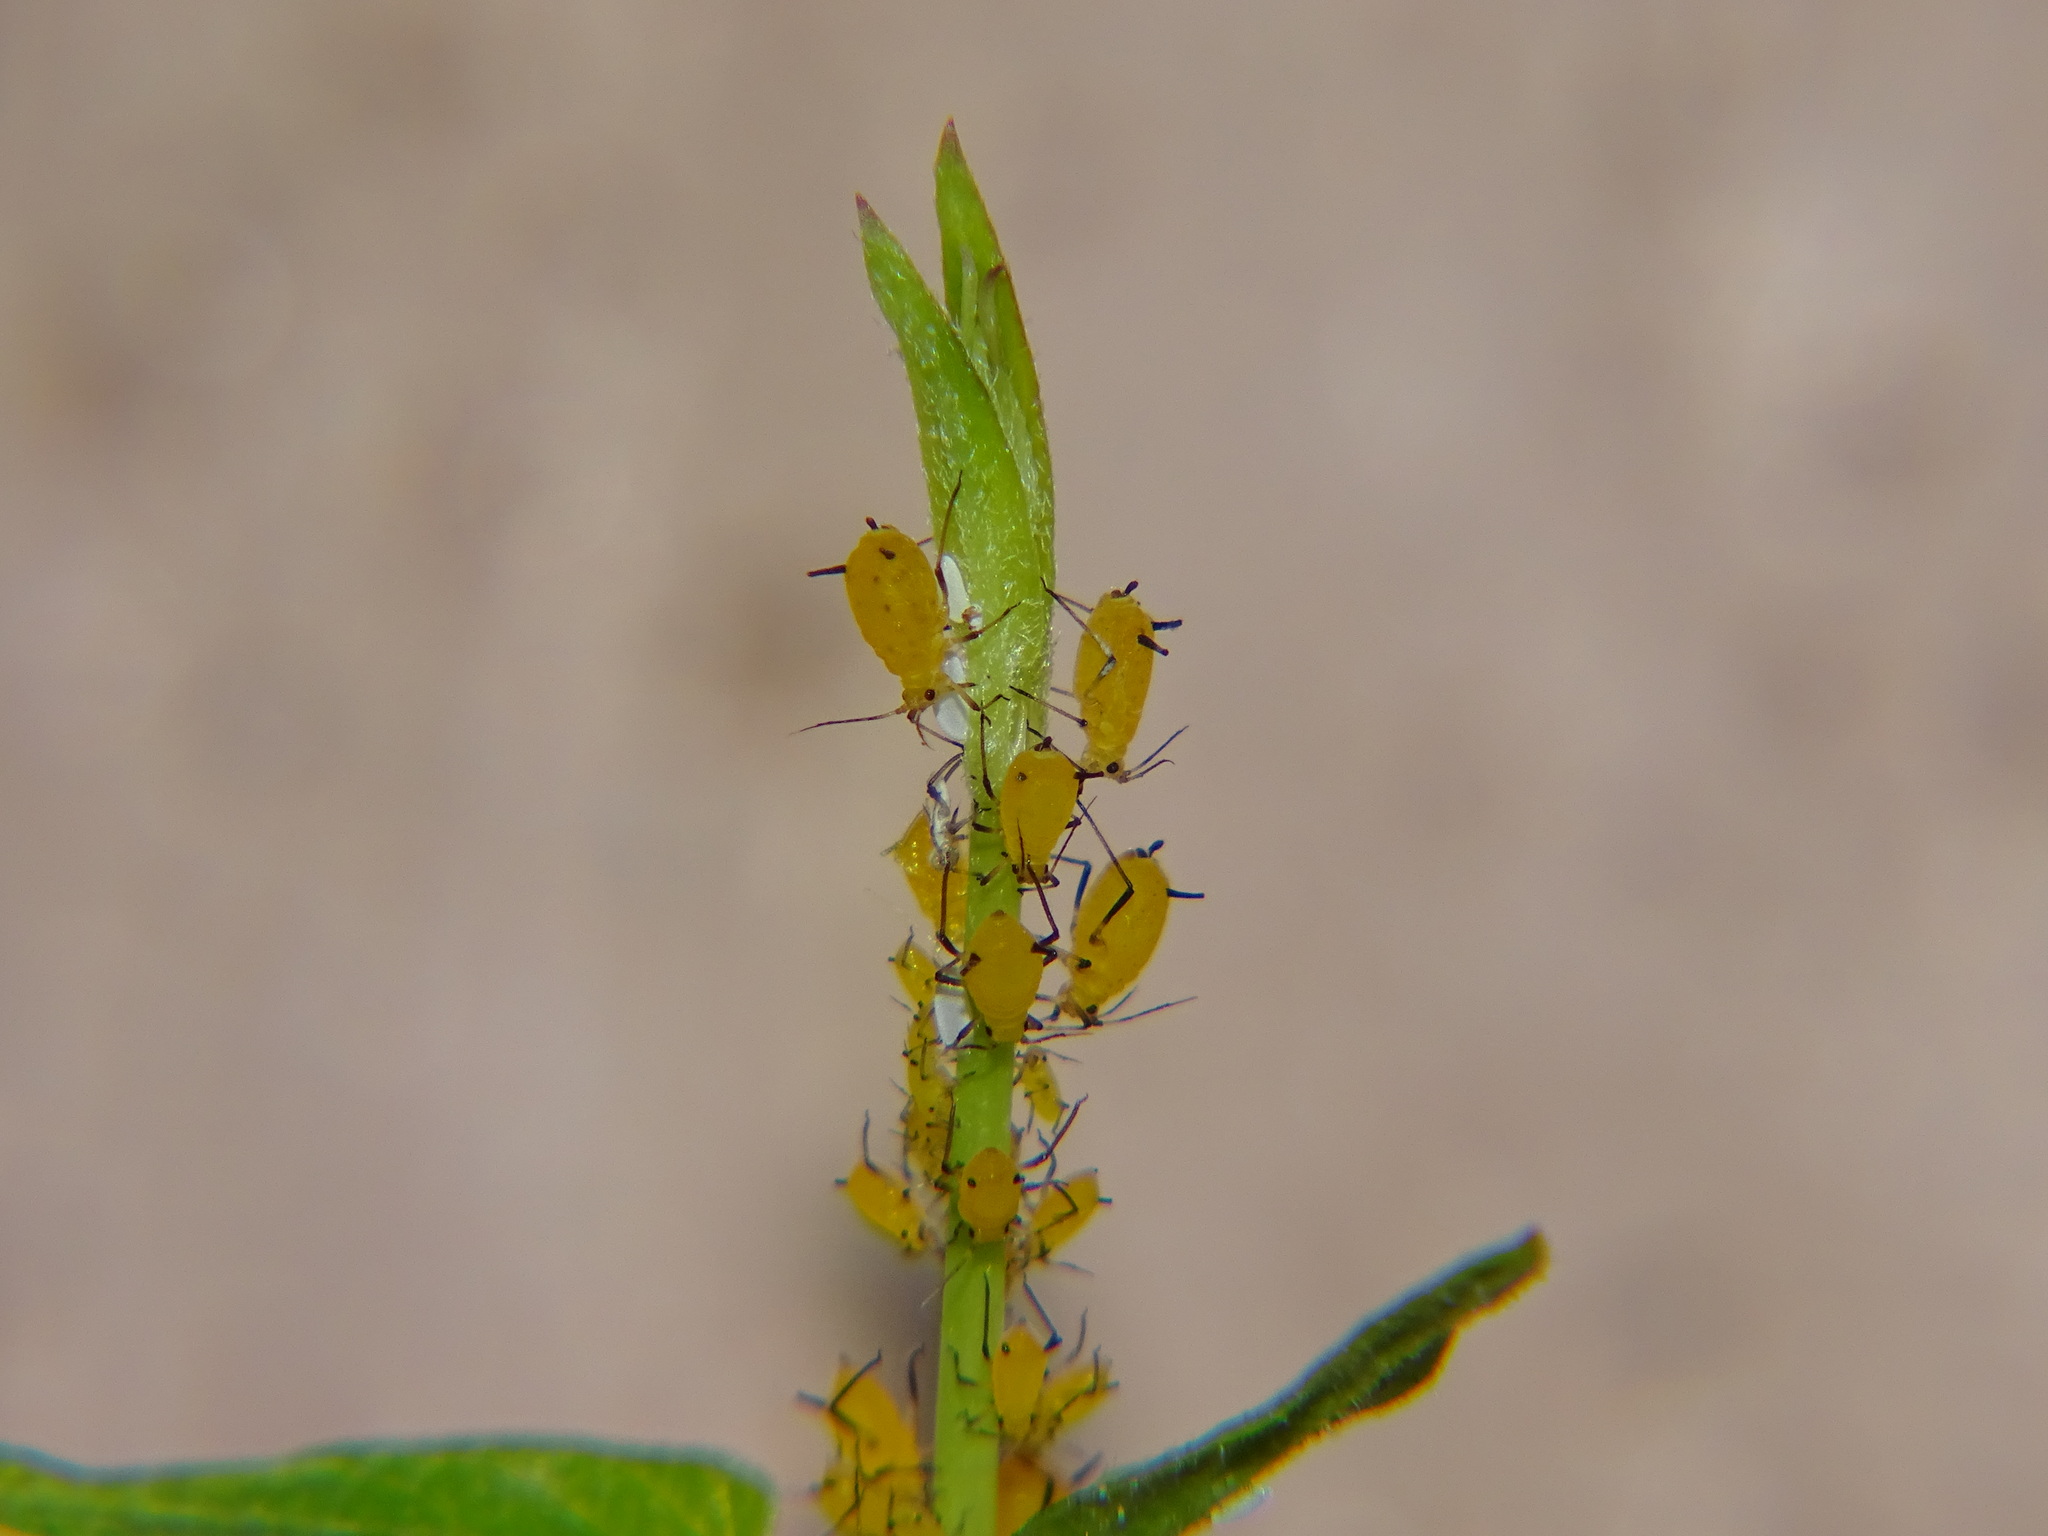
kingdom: Animalia
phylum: Arthropoda
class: Insecta
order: Hemiptera
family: Aphididae
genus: Aphis
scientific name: Aphis nerii
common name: Oleander aphid
